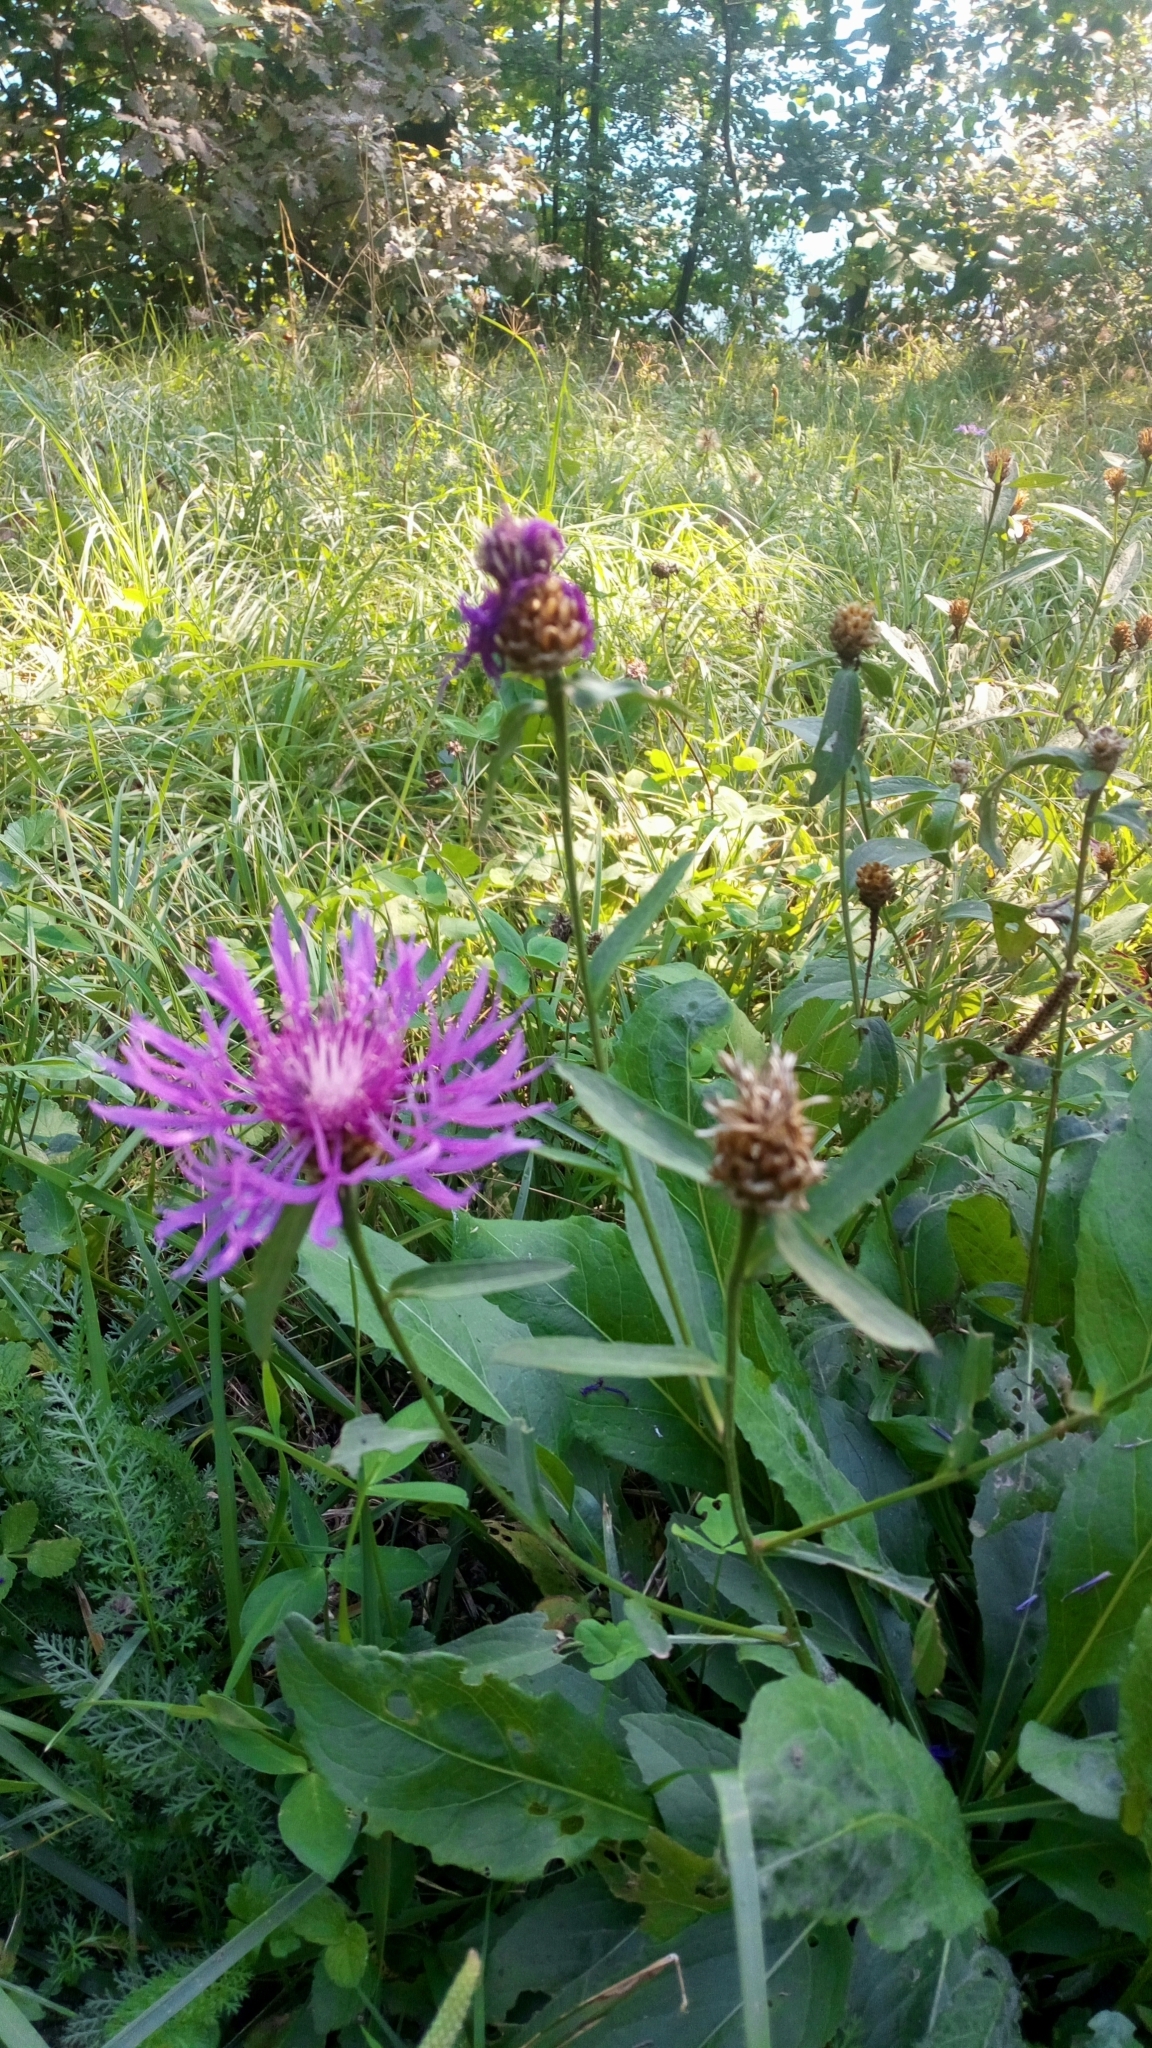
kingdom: Plantae
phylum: Tracheophyta
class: Magnoliopsida
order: Asterales
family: Asteraceae
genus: Centaurea
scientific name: Centaurea jacea
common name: Brown knapweed
